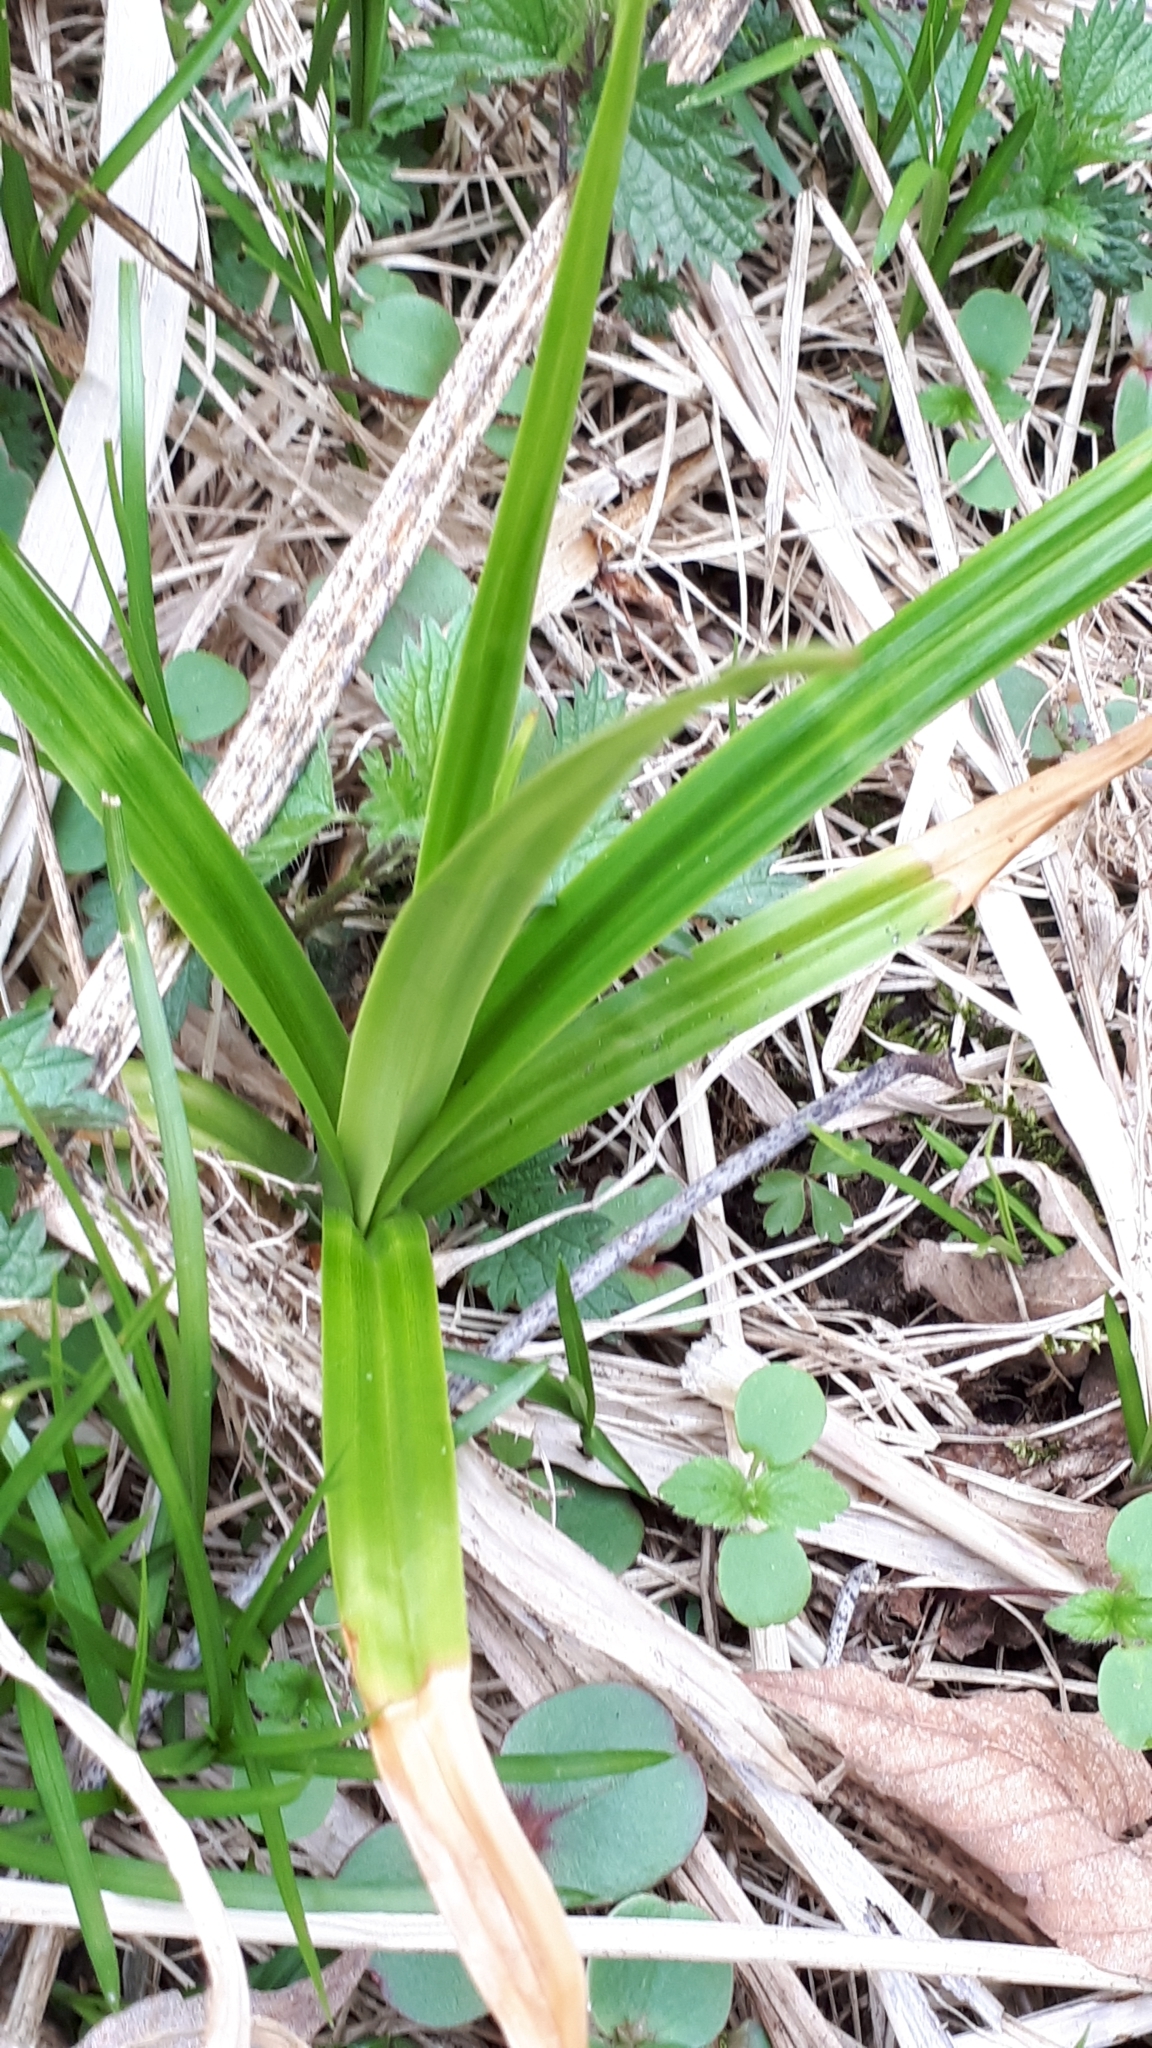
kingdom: Plantae
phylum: Tracheophyta
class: Liliopsida
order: Poales
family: Cyperaceae
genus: Scirpus
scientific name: Scirpus sylvaticus
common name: Wood club-rush
